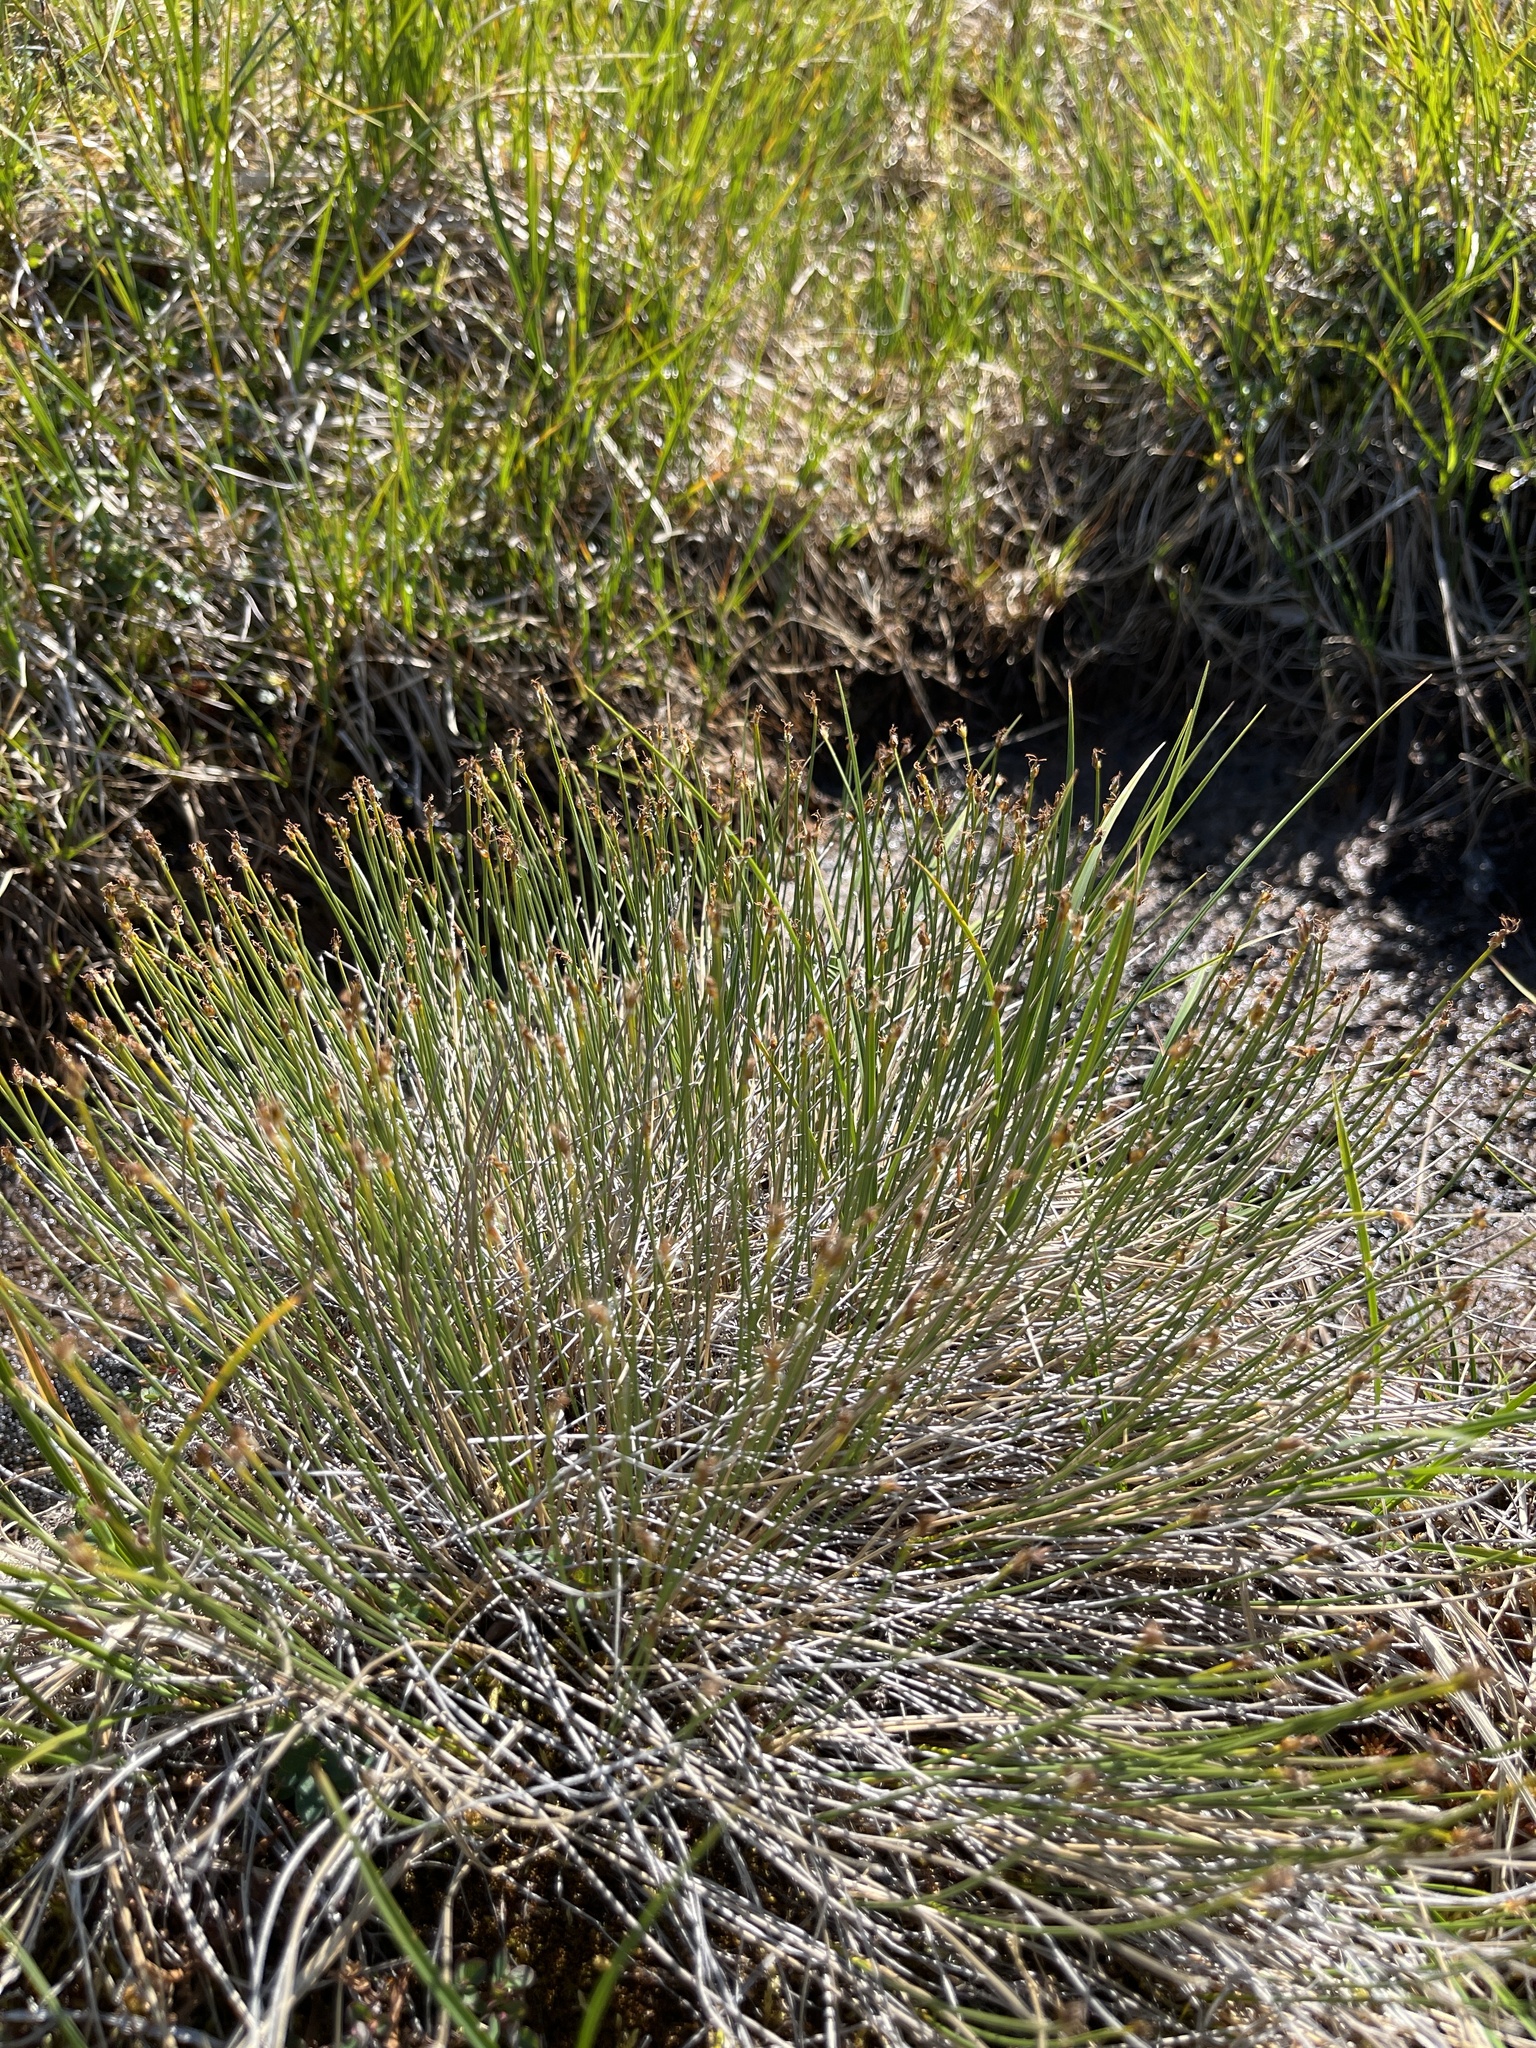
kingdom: Plantae
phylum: Tracheophyta
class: Liliopsida
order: Poales
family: Cyperaceae
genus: Trichophorum
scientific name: Trichophorum cespitosum
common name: Cespitose bulrush
